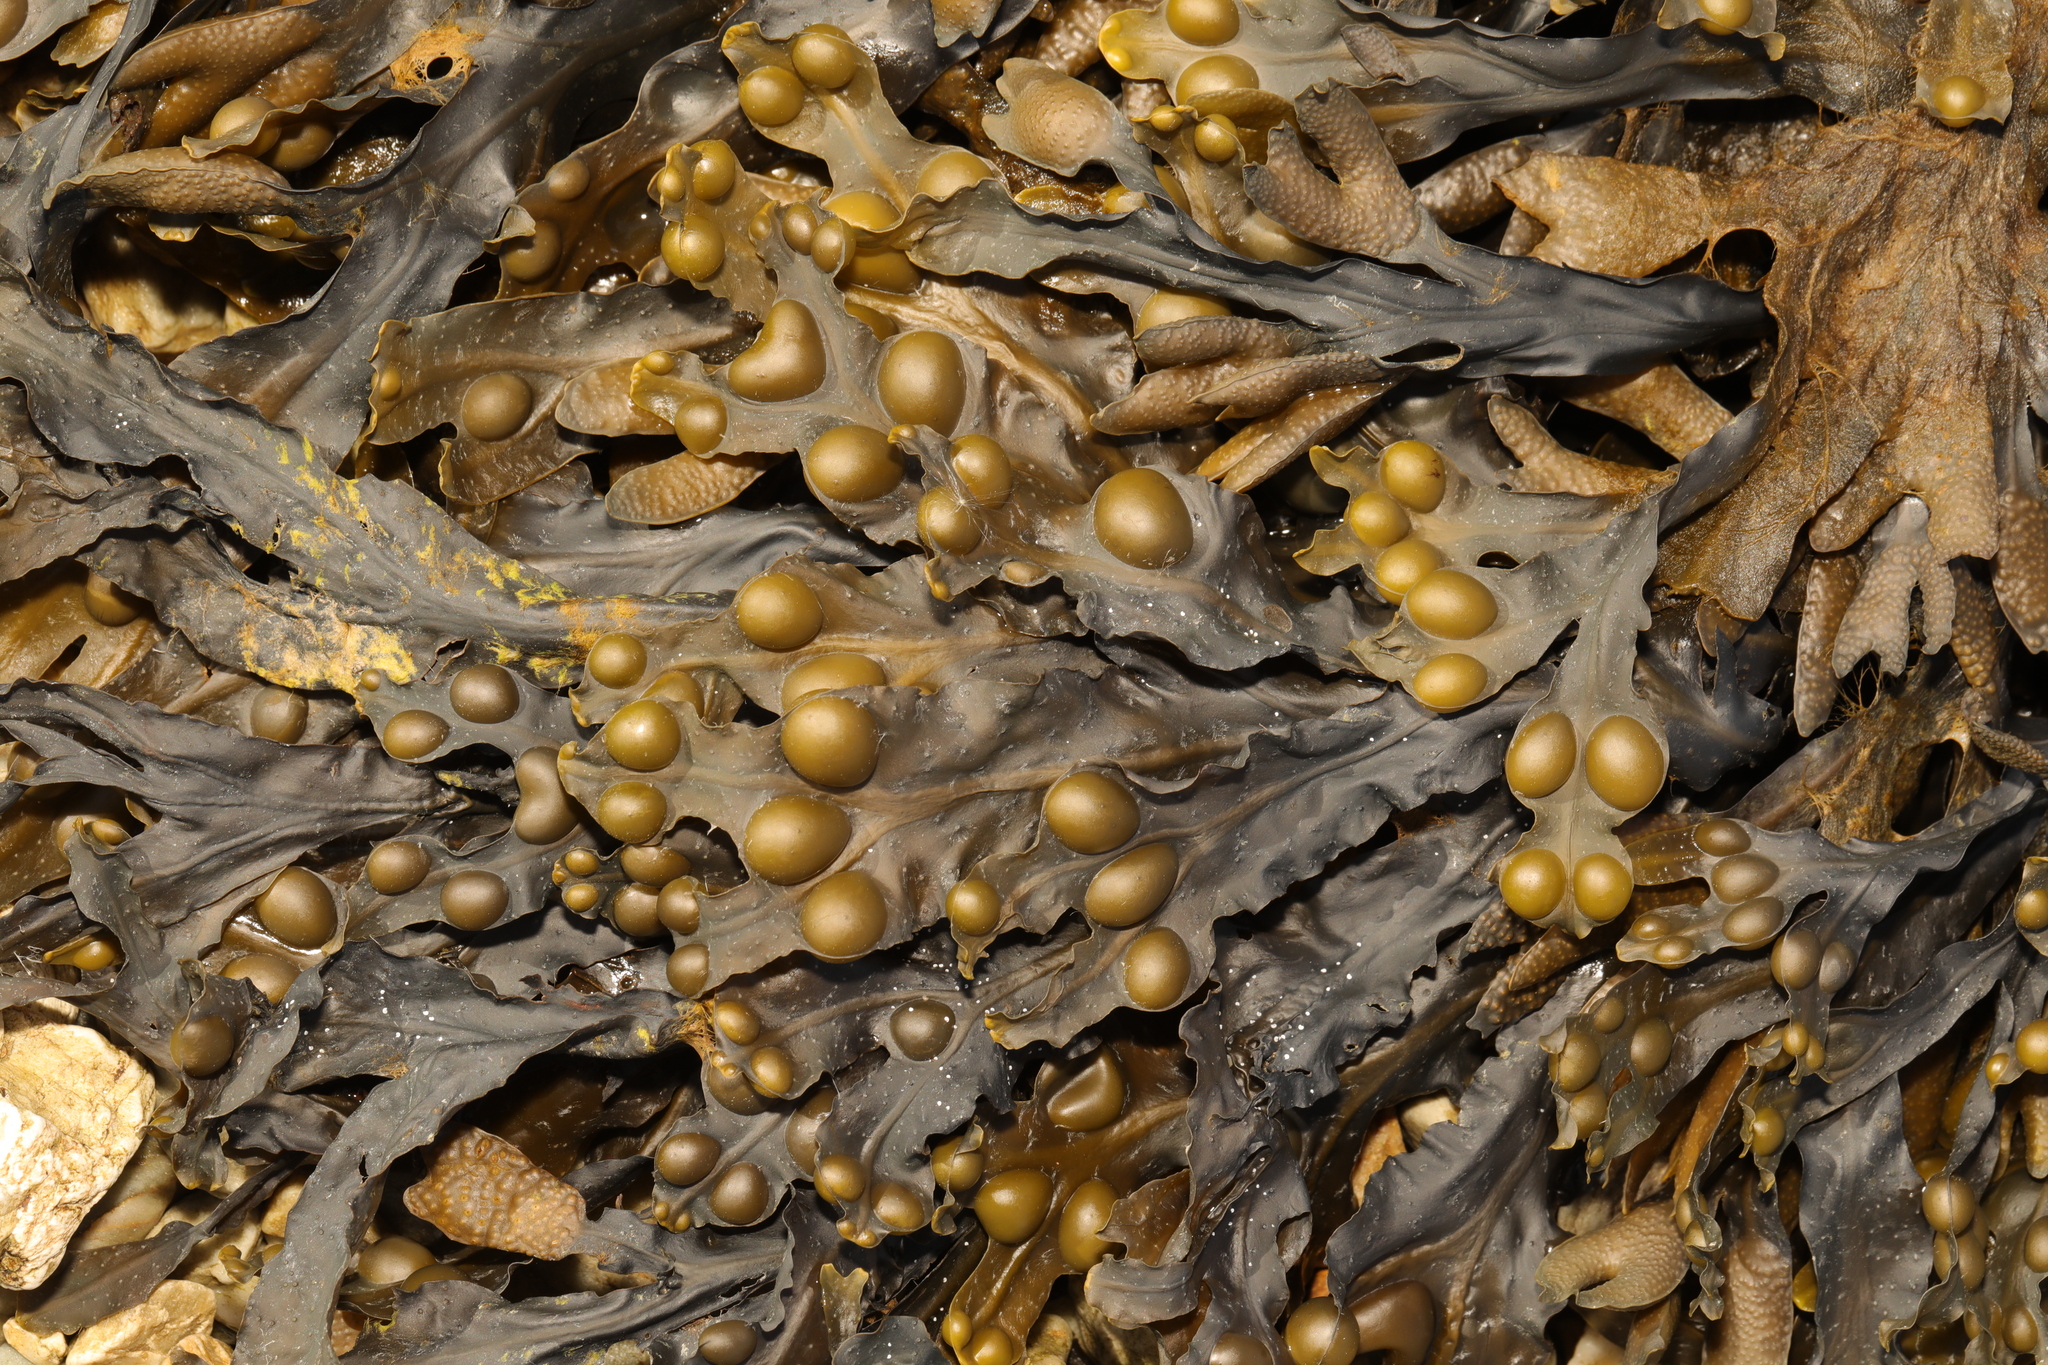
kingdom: Chromista
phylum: Ochrophyta
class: Phaeophyceae
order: Fucales
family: Fucaceae
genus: Fucus
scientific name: Fucus vesiculosus
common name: Bladder wrack
